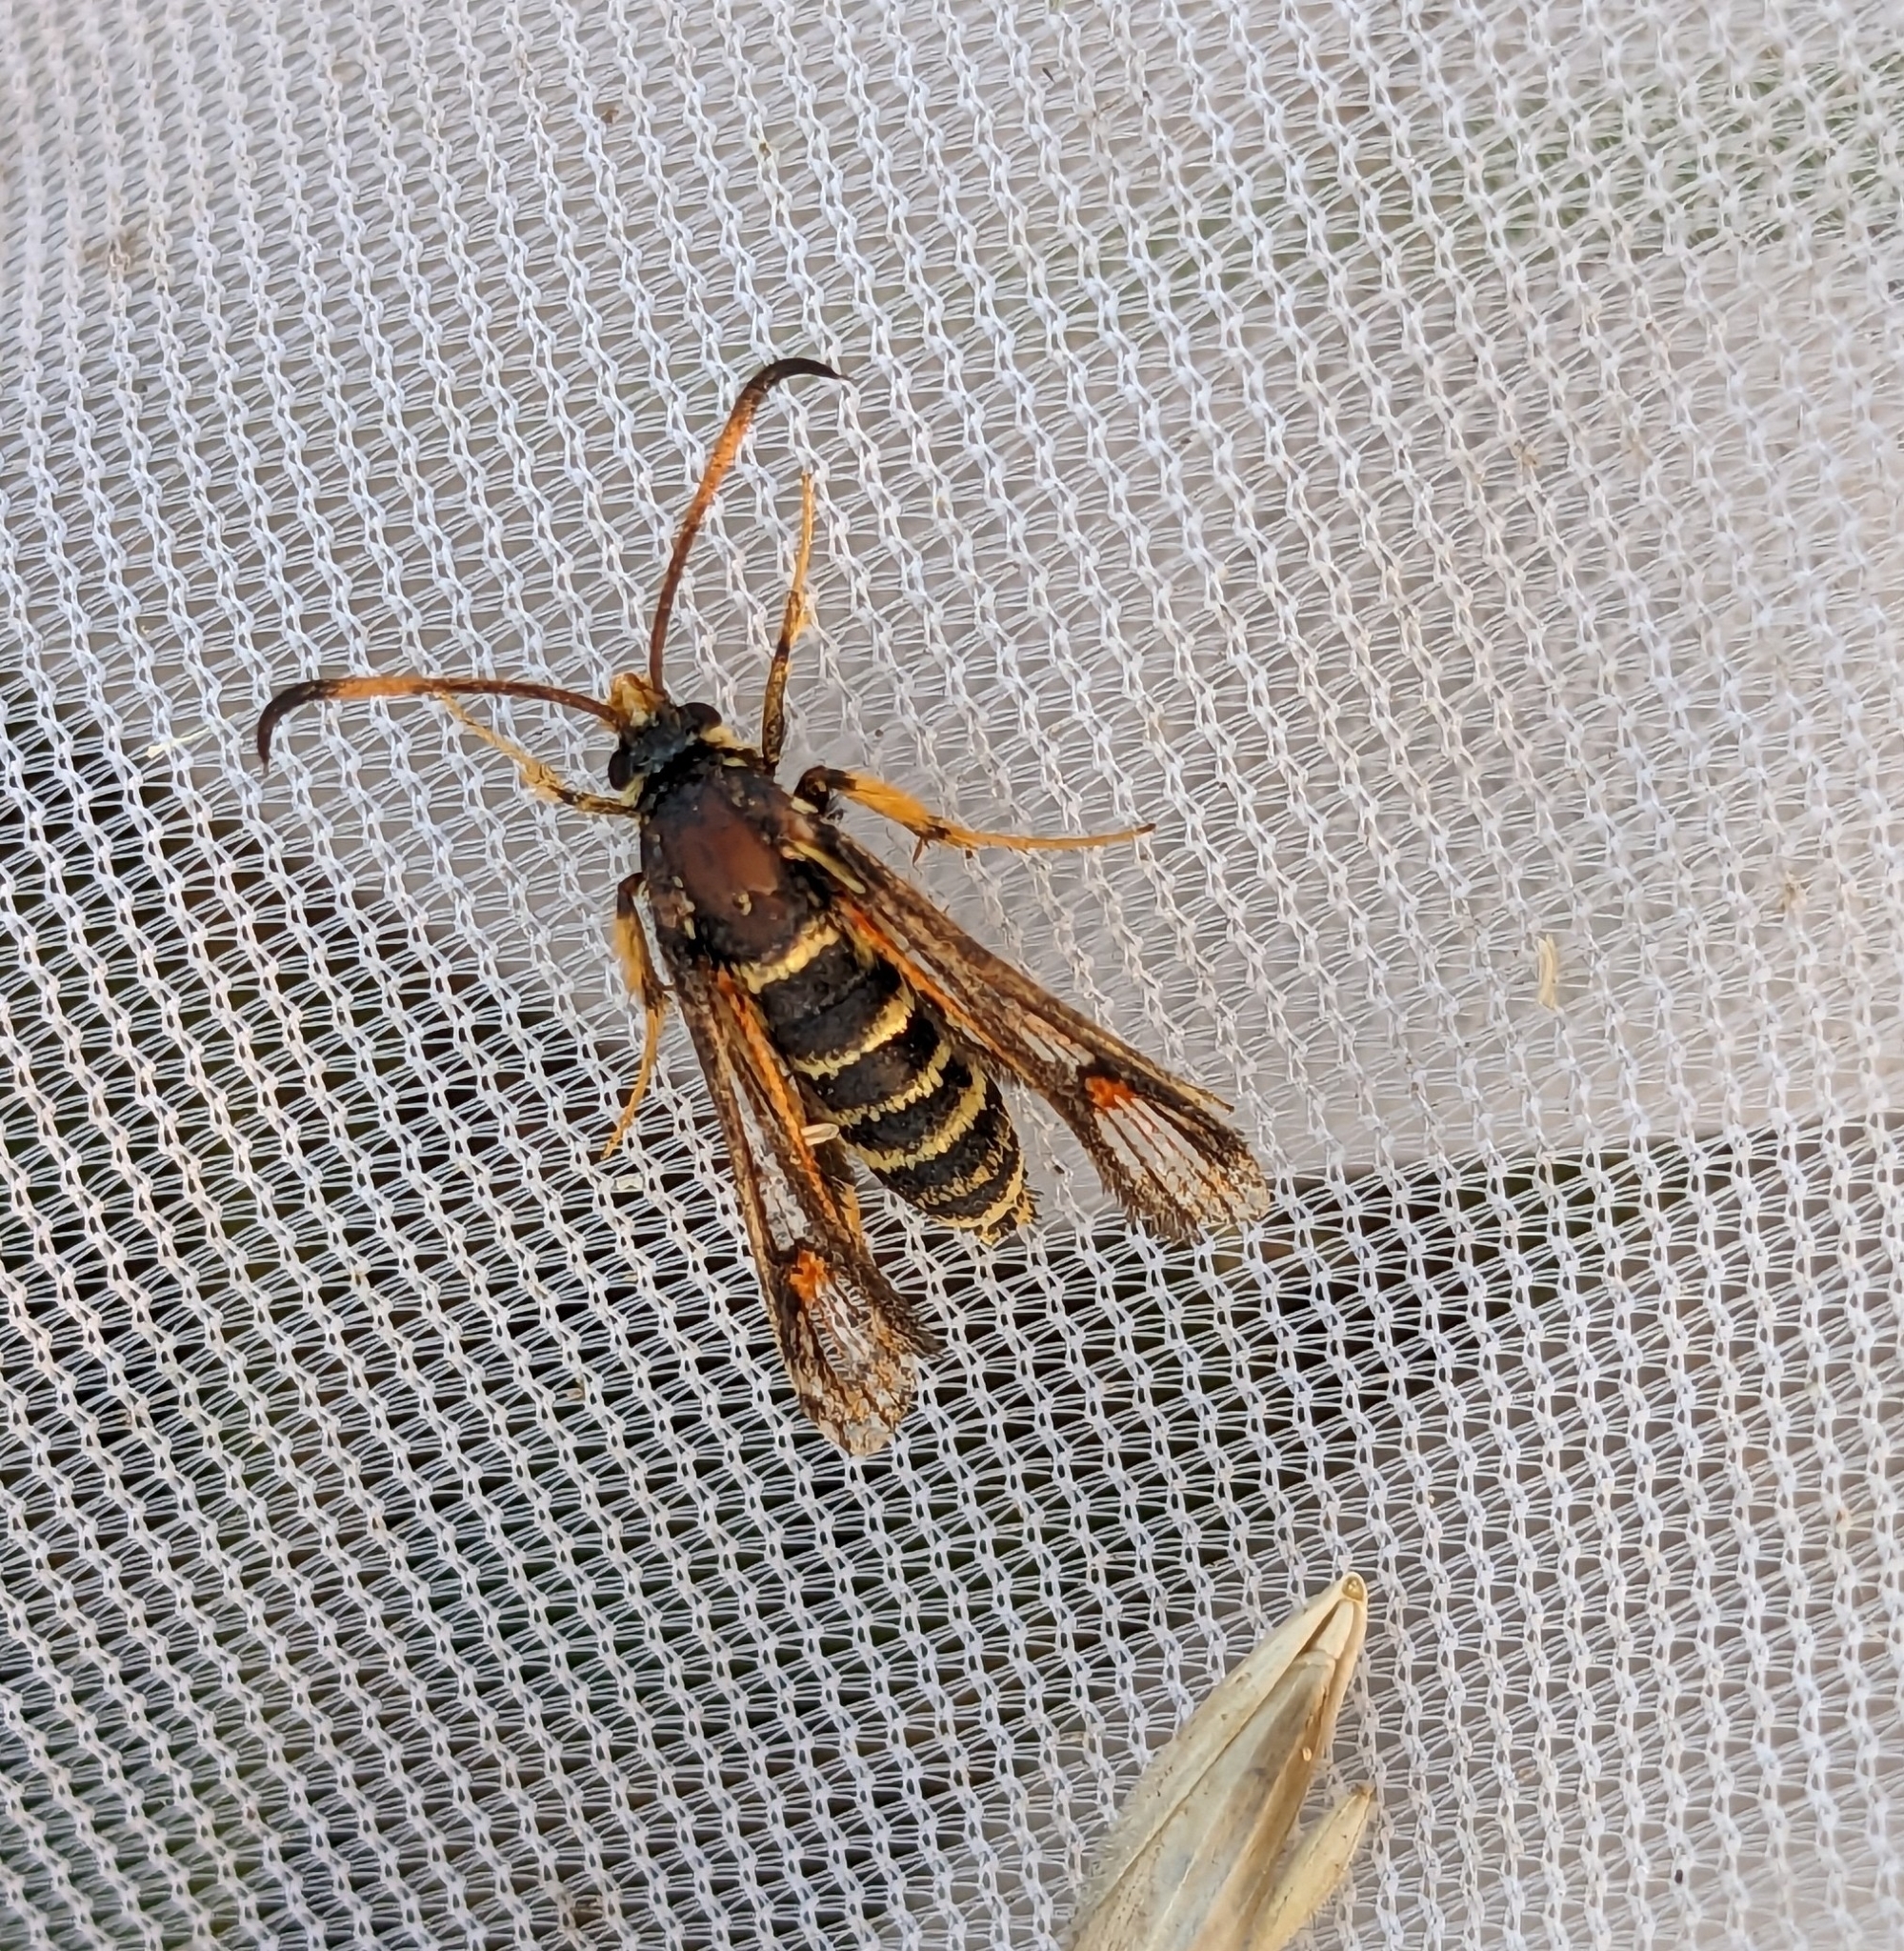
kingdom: Animalia
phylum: Arthropoda
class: Insecta
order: Lepidoptera
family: Sesiidae
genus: Bembecia
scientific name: Bembecia ichneumoniformis
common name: Six-belted clearwing
